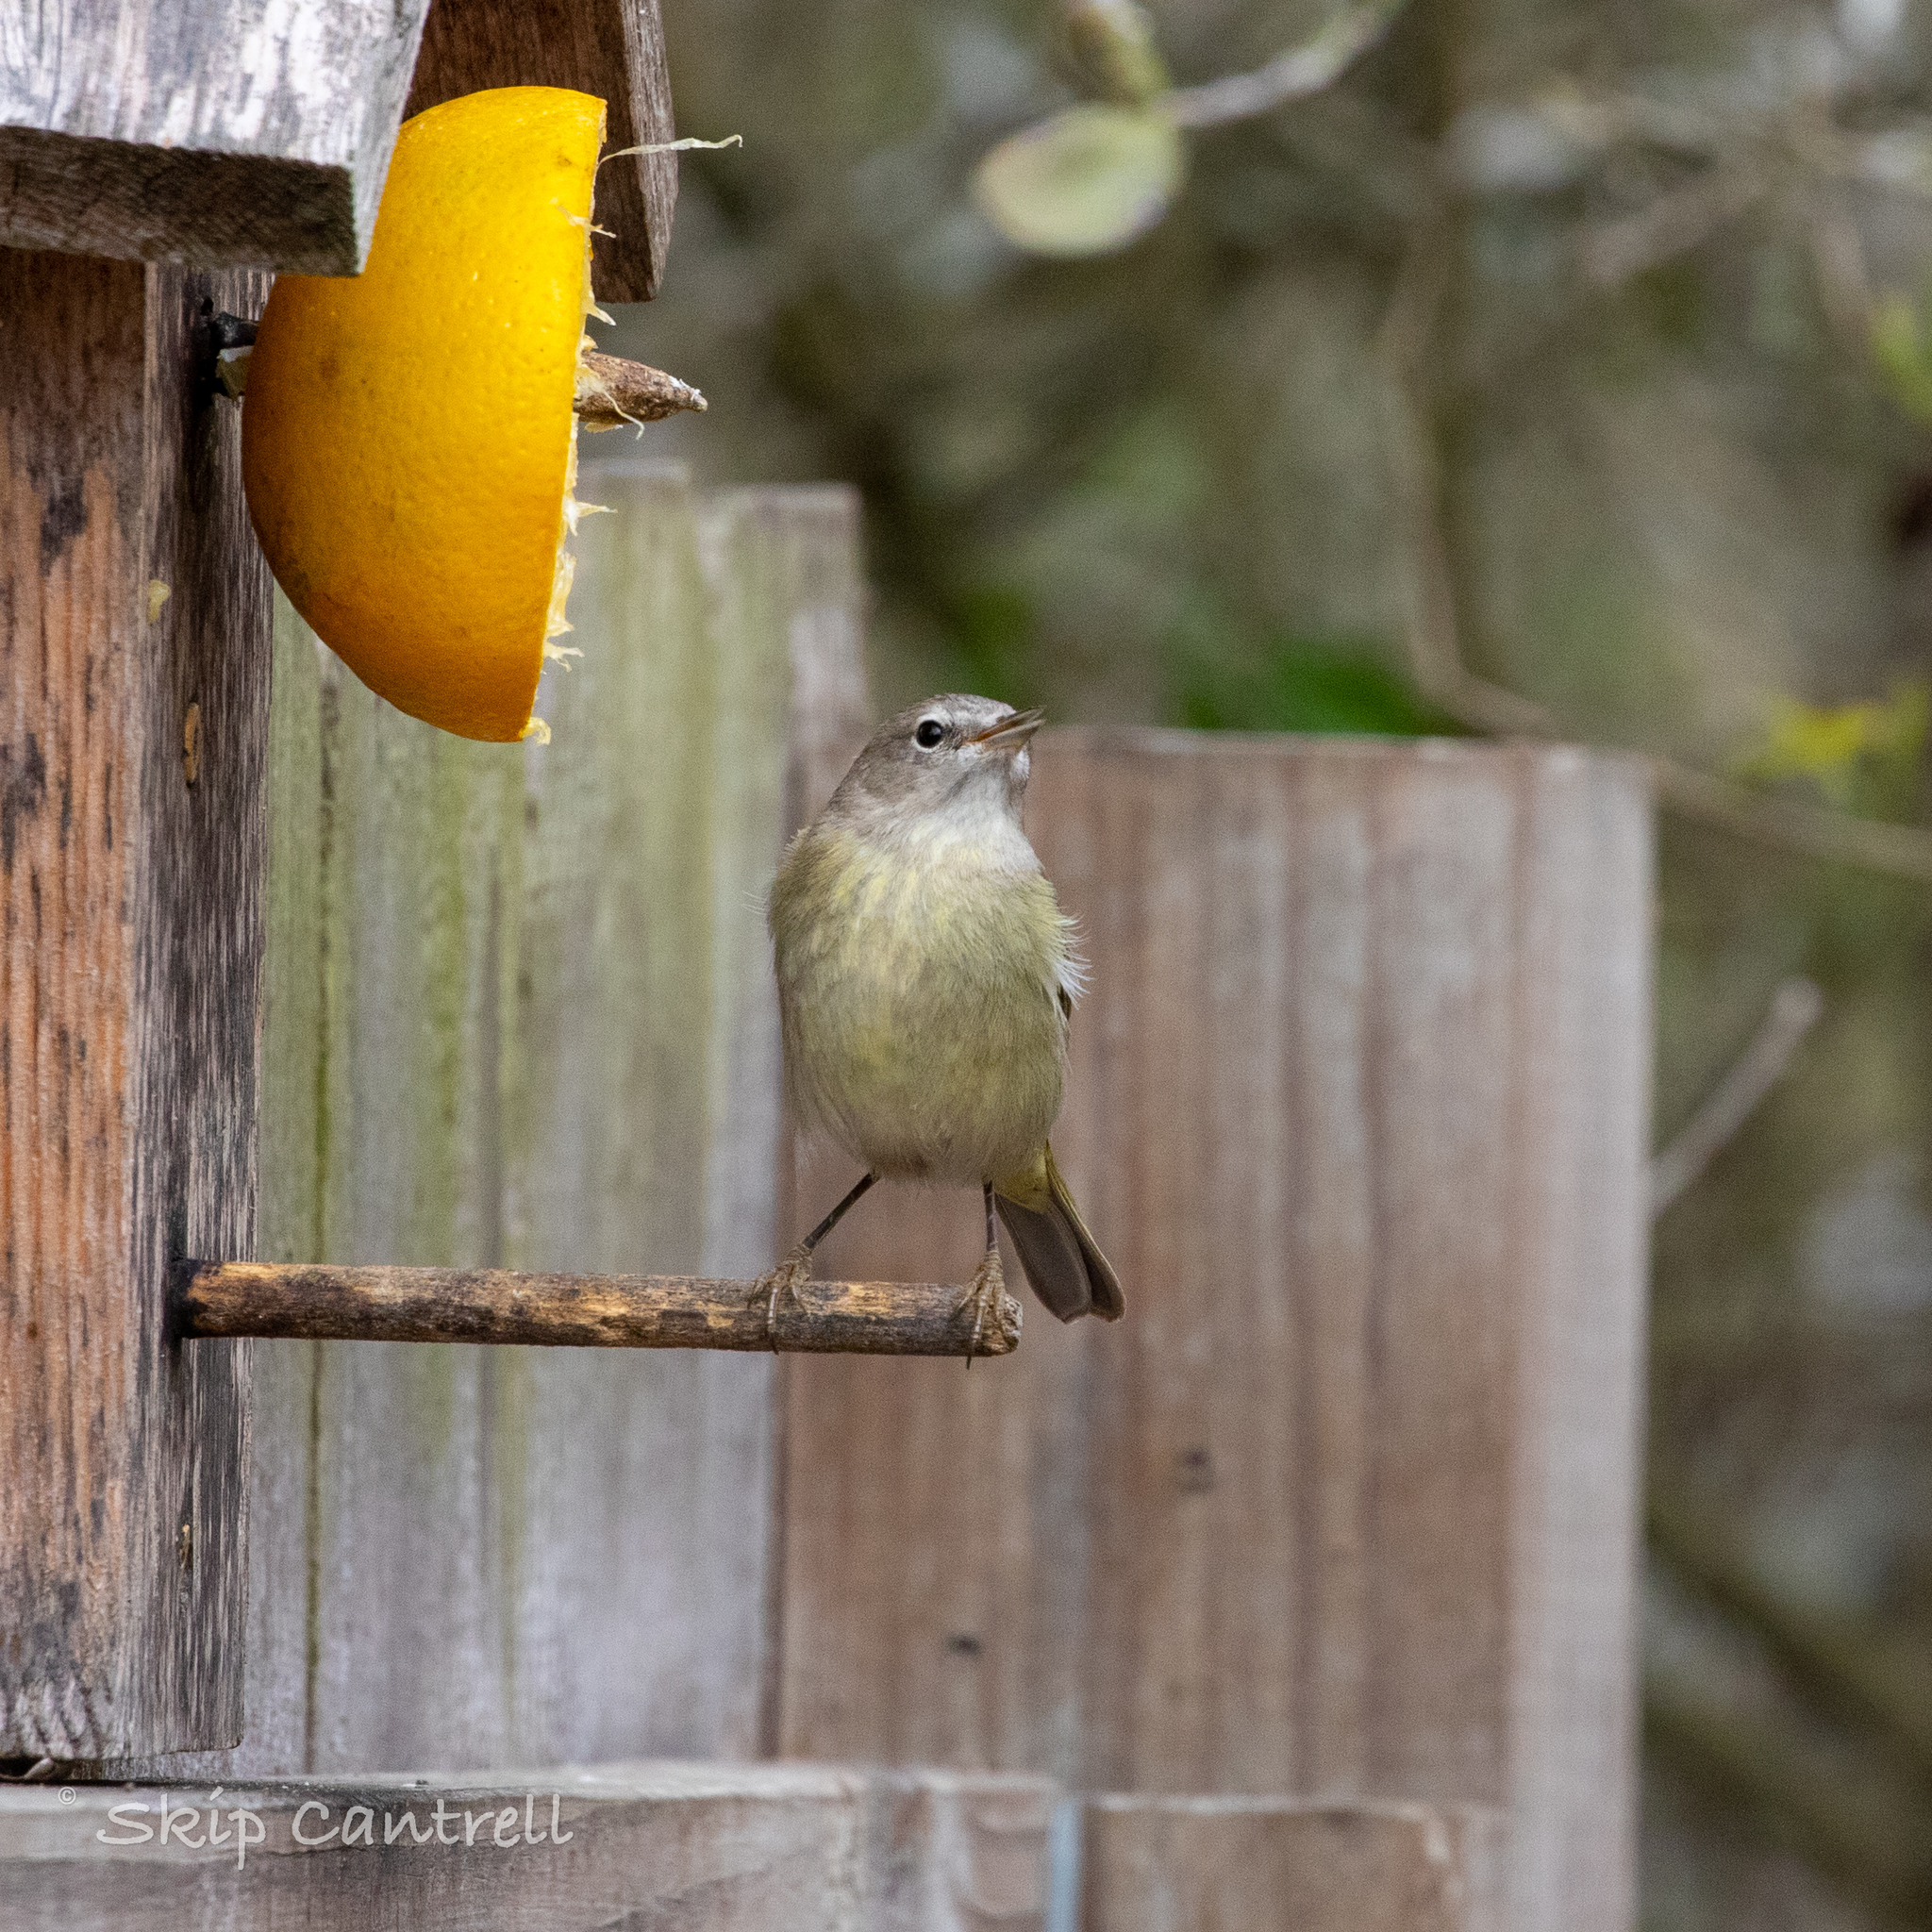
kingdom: Animalia
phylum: Chordata
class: Aves
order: Passeriformes
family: Parulidae
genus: Leiothlypis
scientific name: Leiothlypis celata
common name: Orange-crowned warbler
